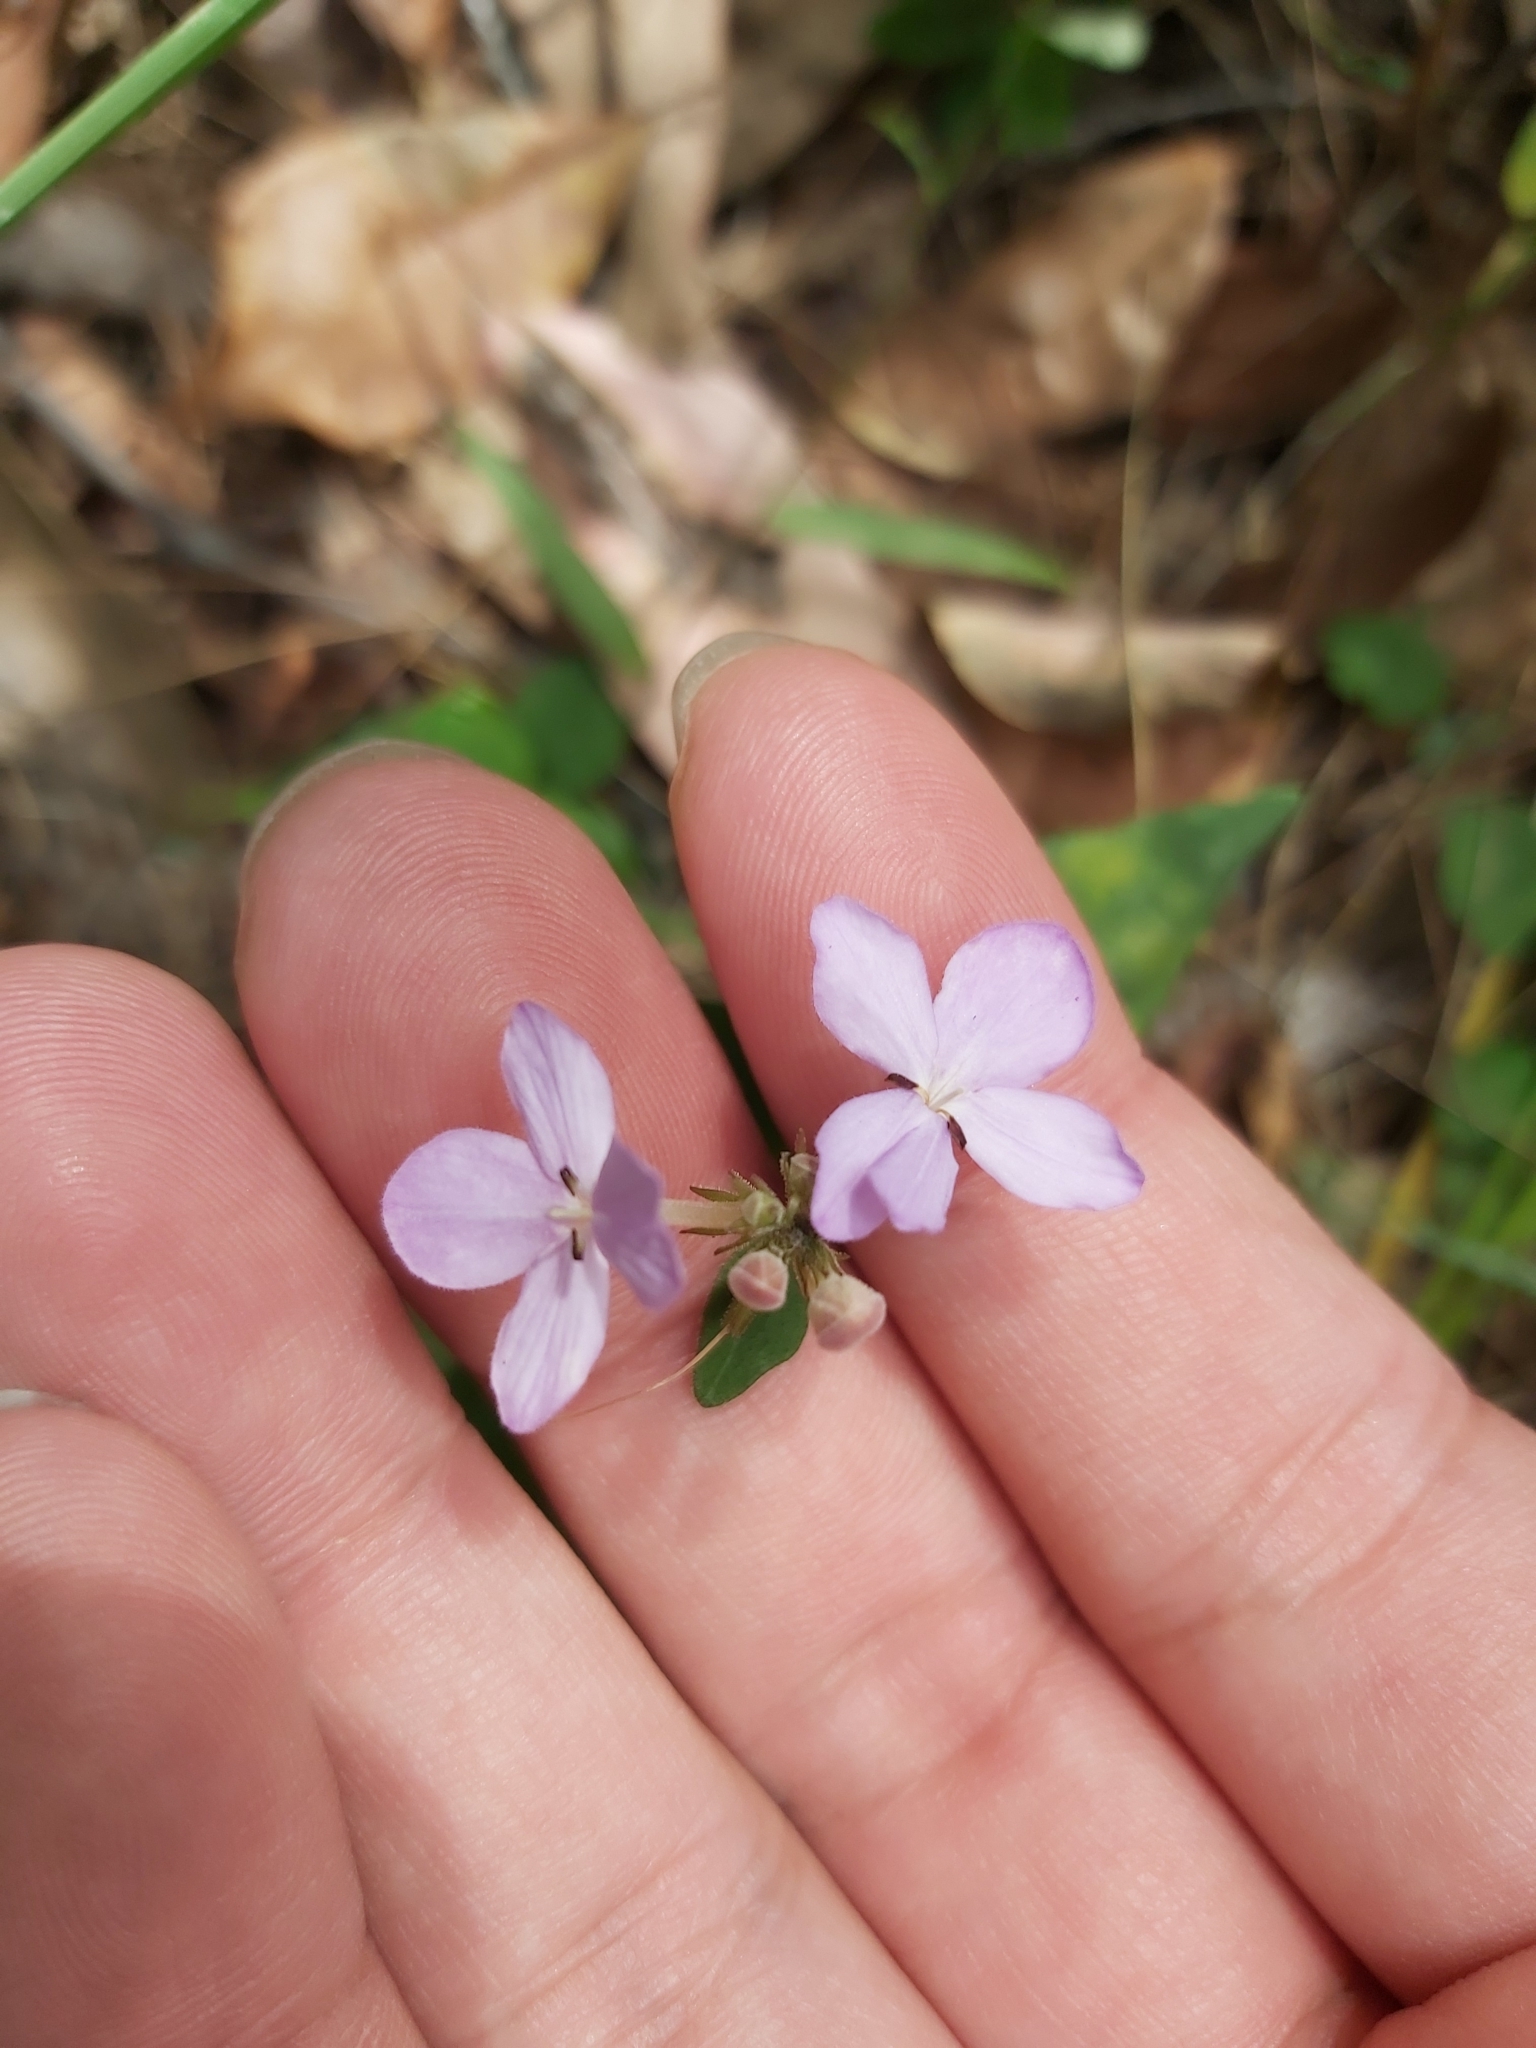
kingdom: Plantae
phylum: Tracheophyta
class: Magnoliopsida
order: Lamiales
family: Acanthaceae
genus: Pseuderanthemum
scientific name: Pseuderanthemum variabile
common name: Night and afternoon
